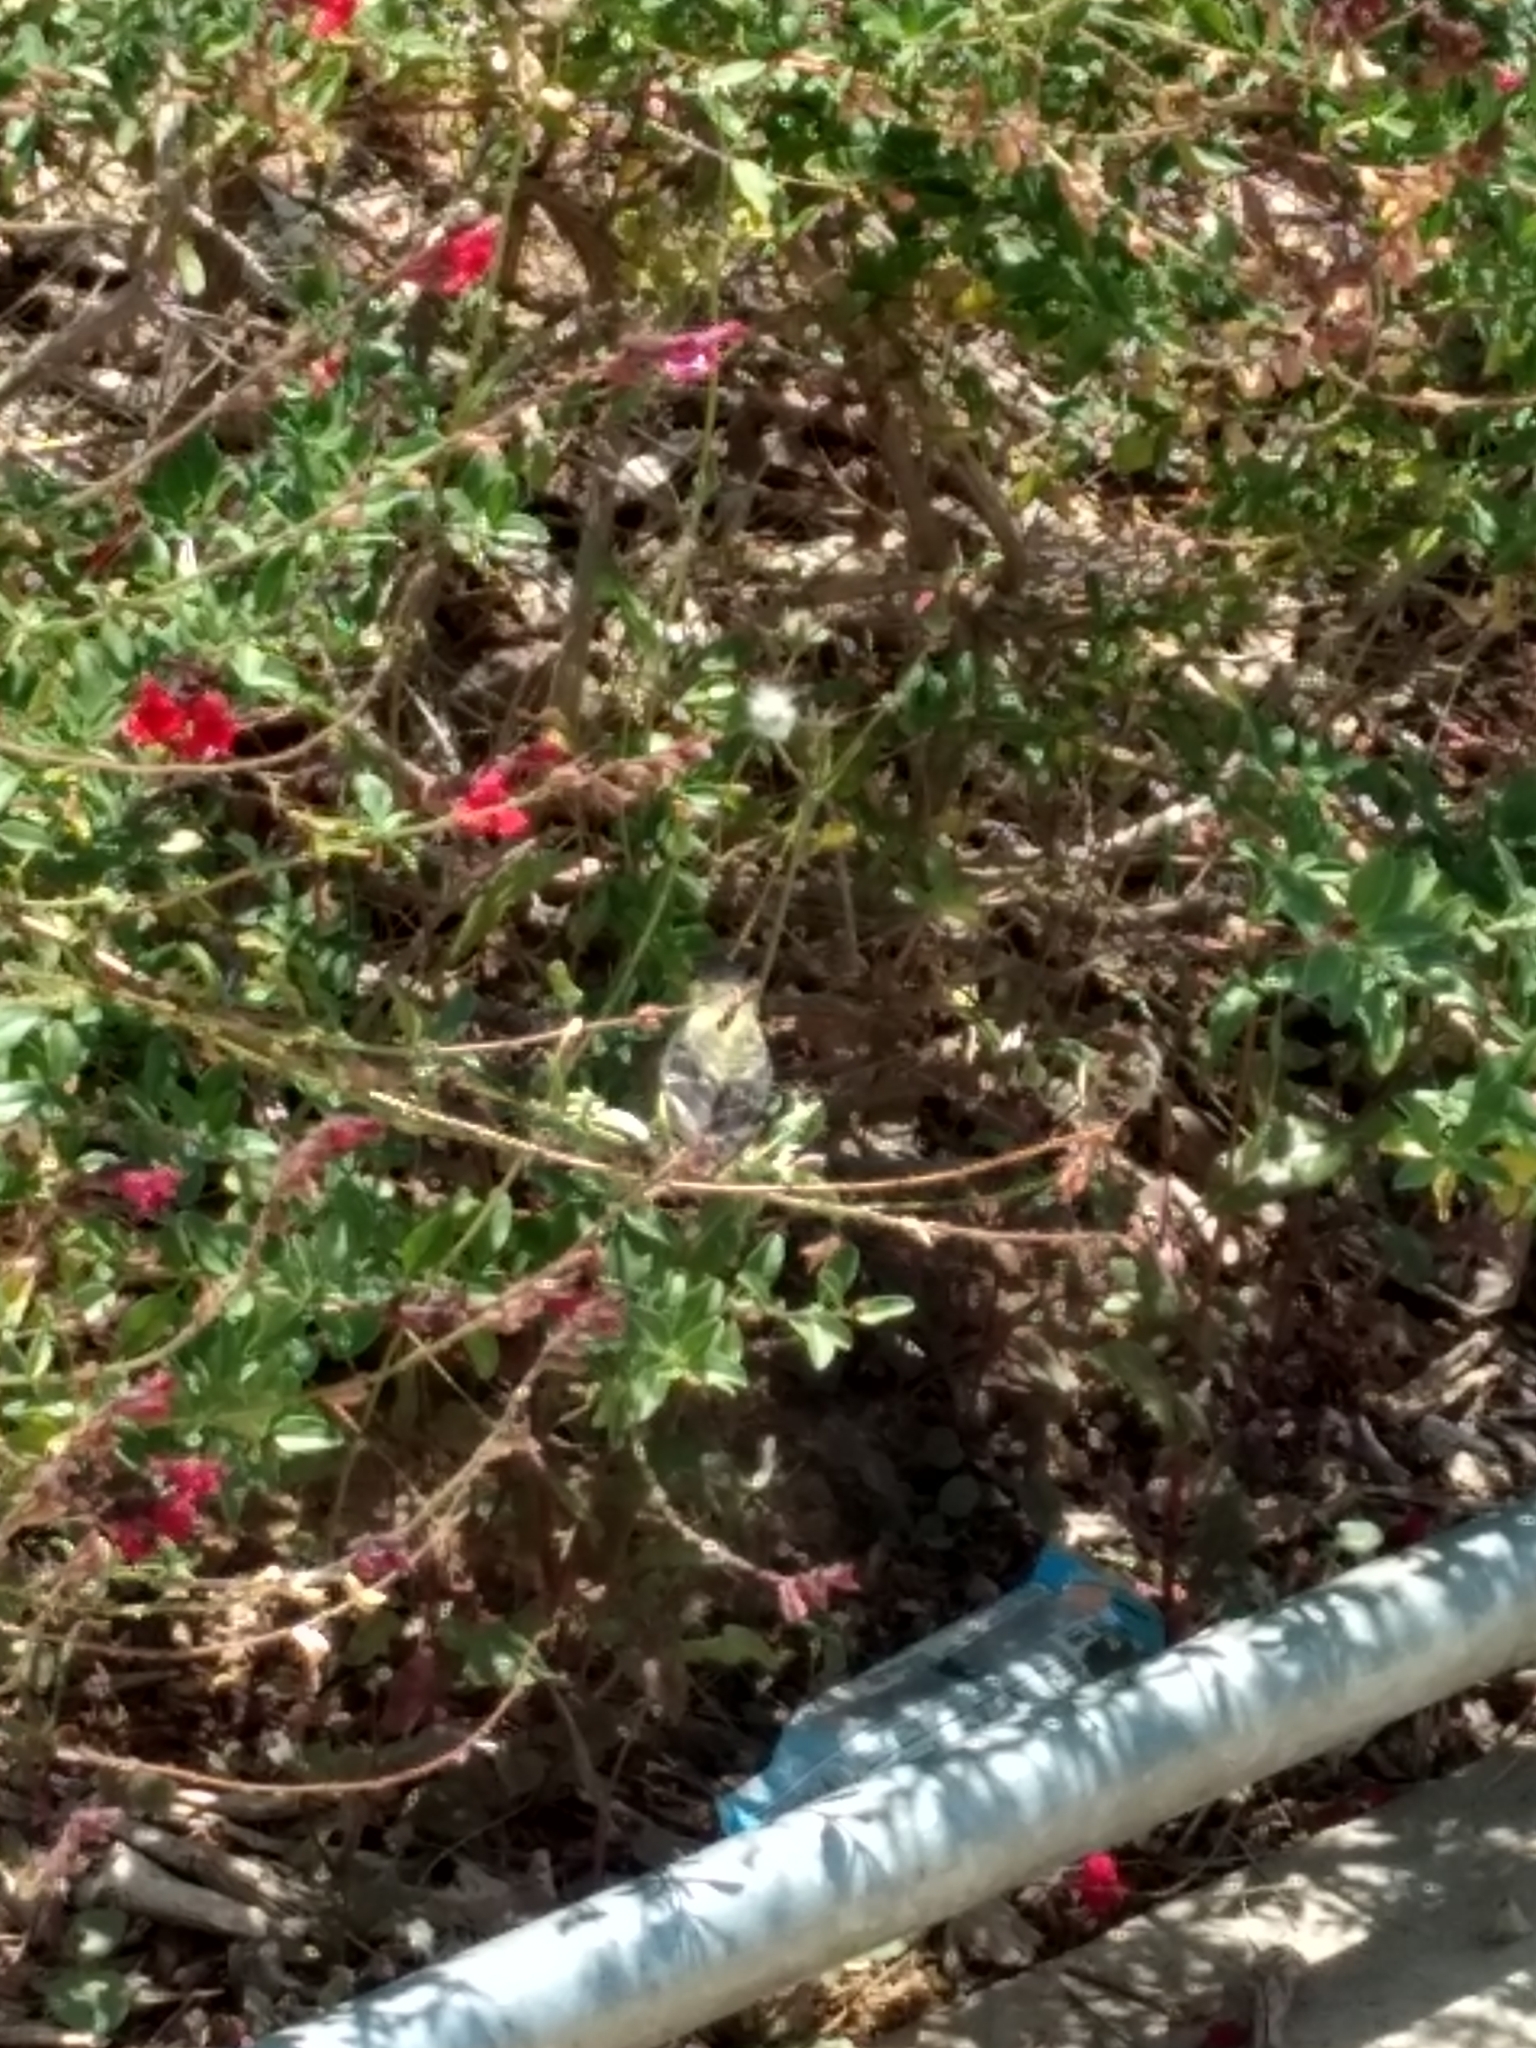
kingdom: Animalia
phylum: Chordata
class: Aves
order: Passeriformes
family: Fringillidae
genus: Spinus
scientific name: Spinus psaltria
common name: Lesser goldfinch
